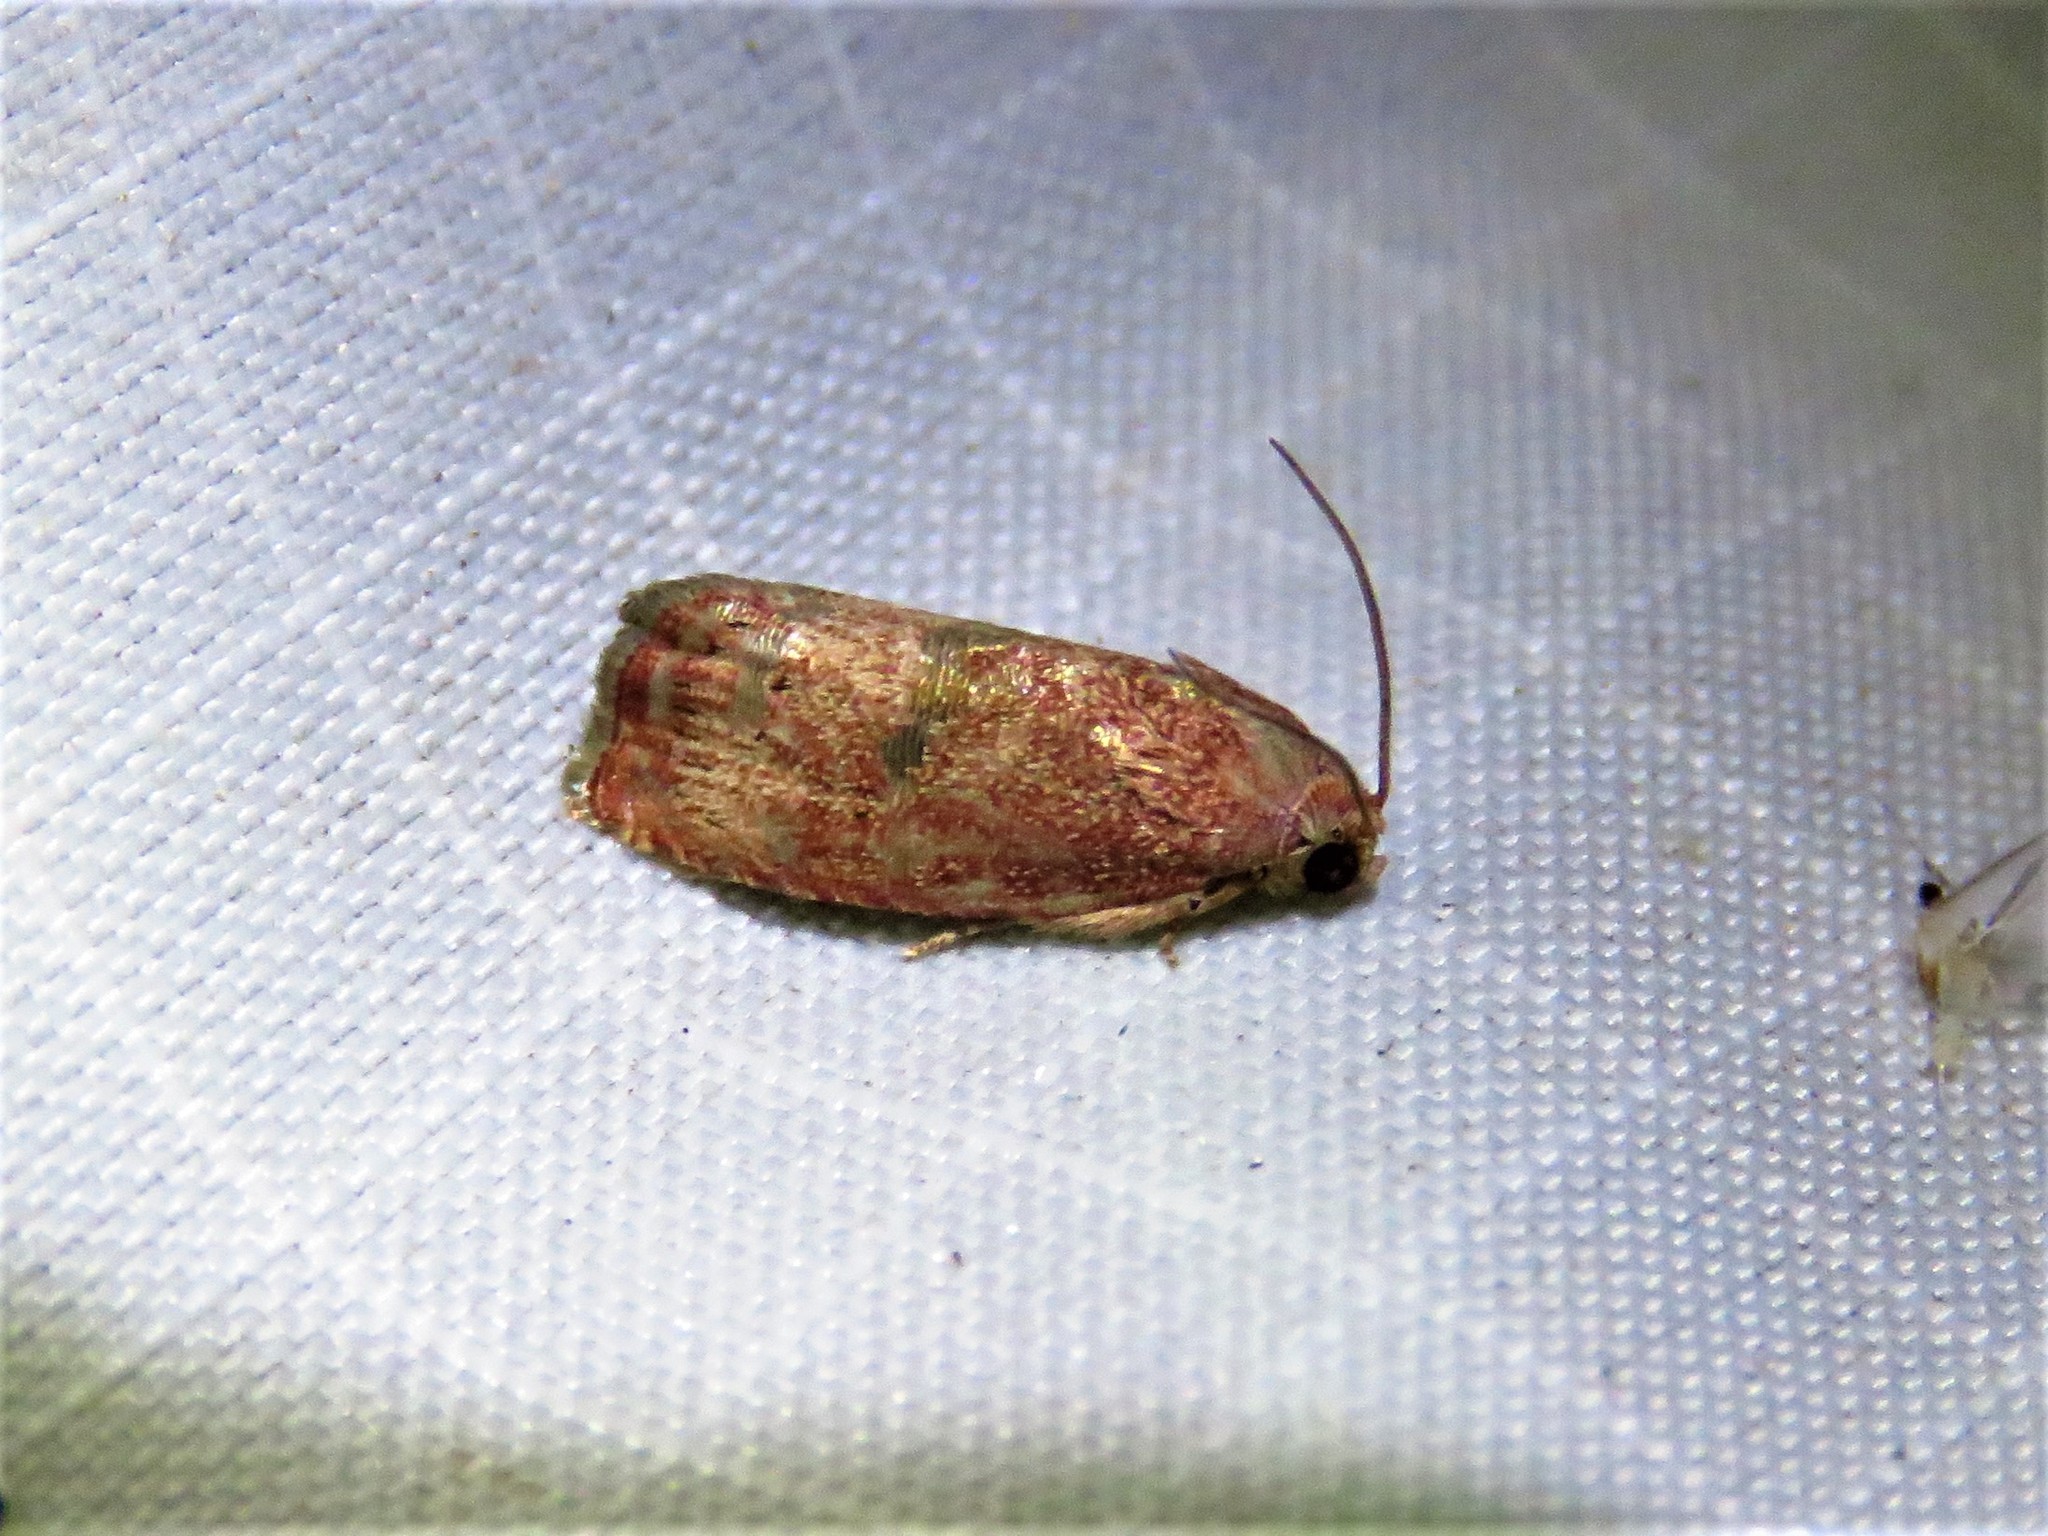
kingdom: Animalia
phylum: Arthropoda
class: Insecta
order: Lepidoptera
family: Tortricidae
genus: Cydia
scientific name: Cydia latiferreana
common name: Filbertworm moth
